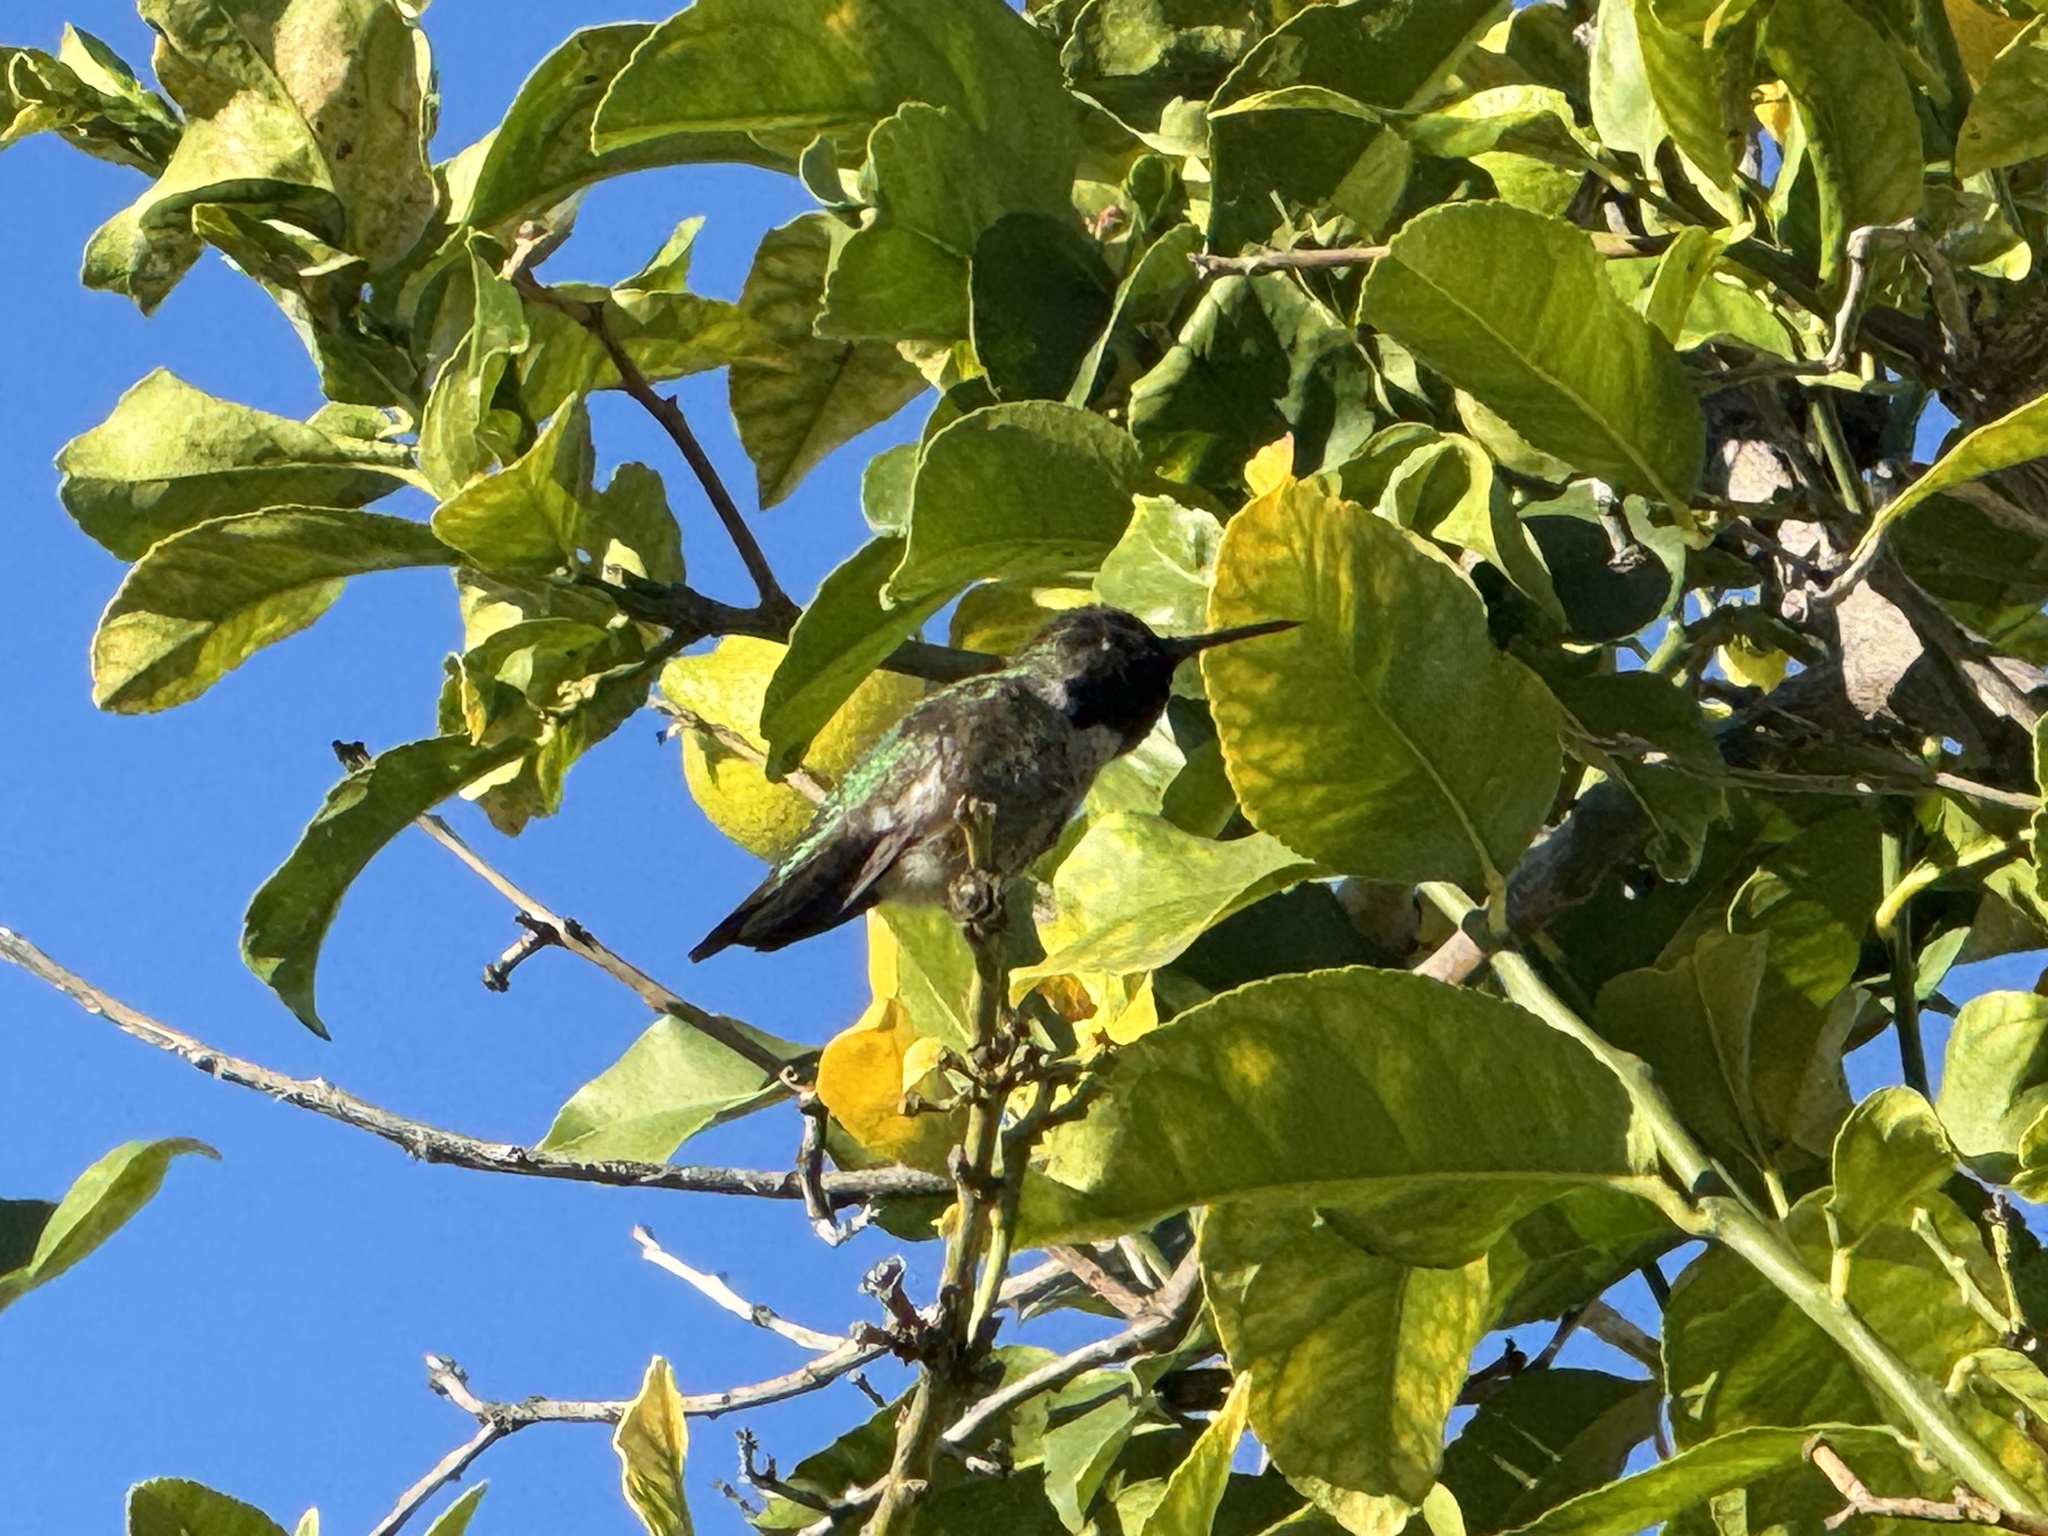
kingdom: Animalia
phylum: Chordata
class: Aves
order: Apodiformes
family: Trochilidae
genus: Calypte
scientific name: Calypte anna
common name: Anna's hummingbird
